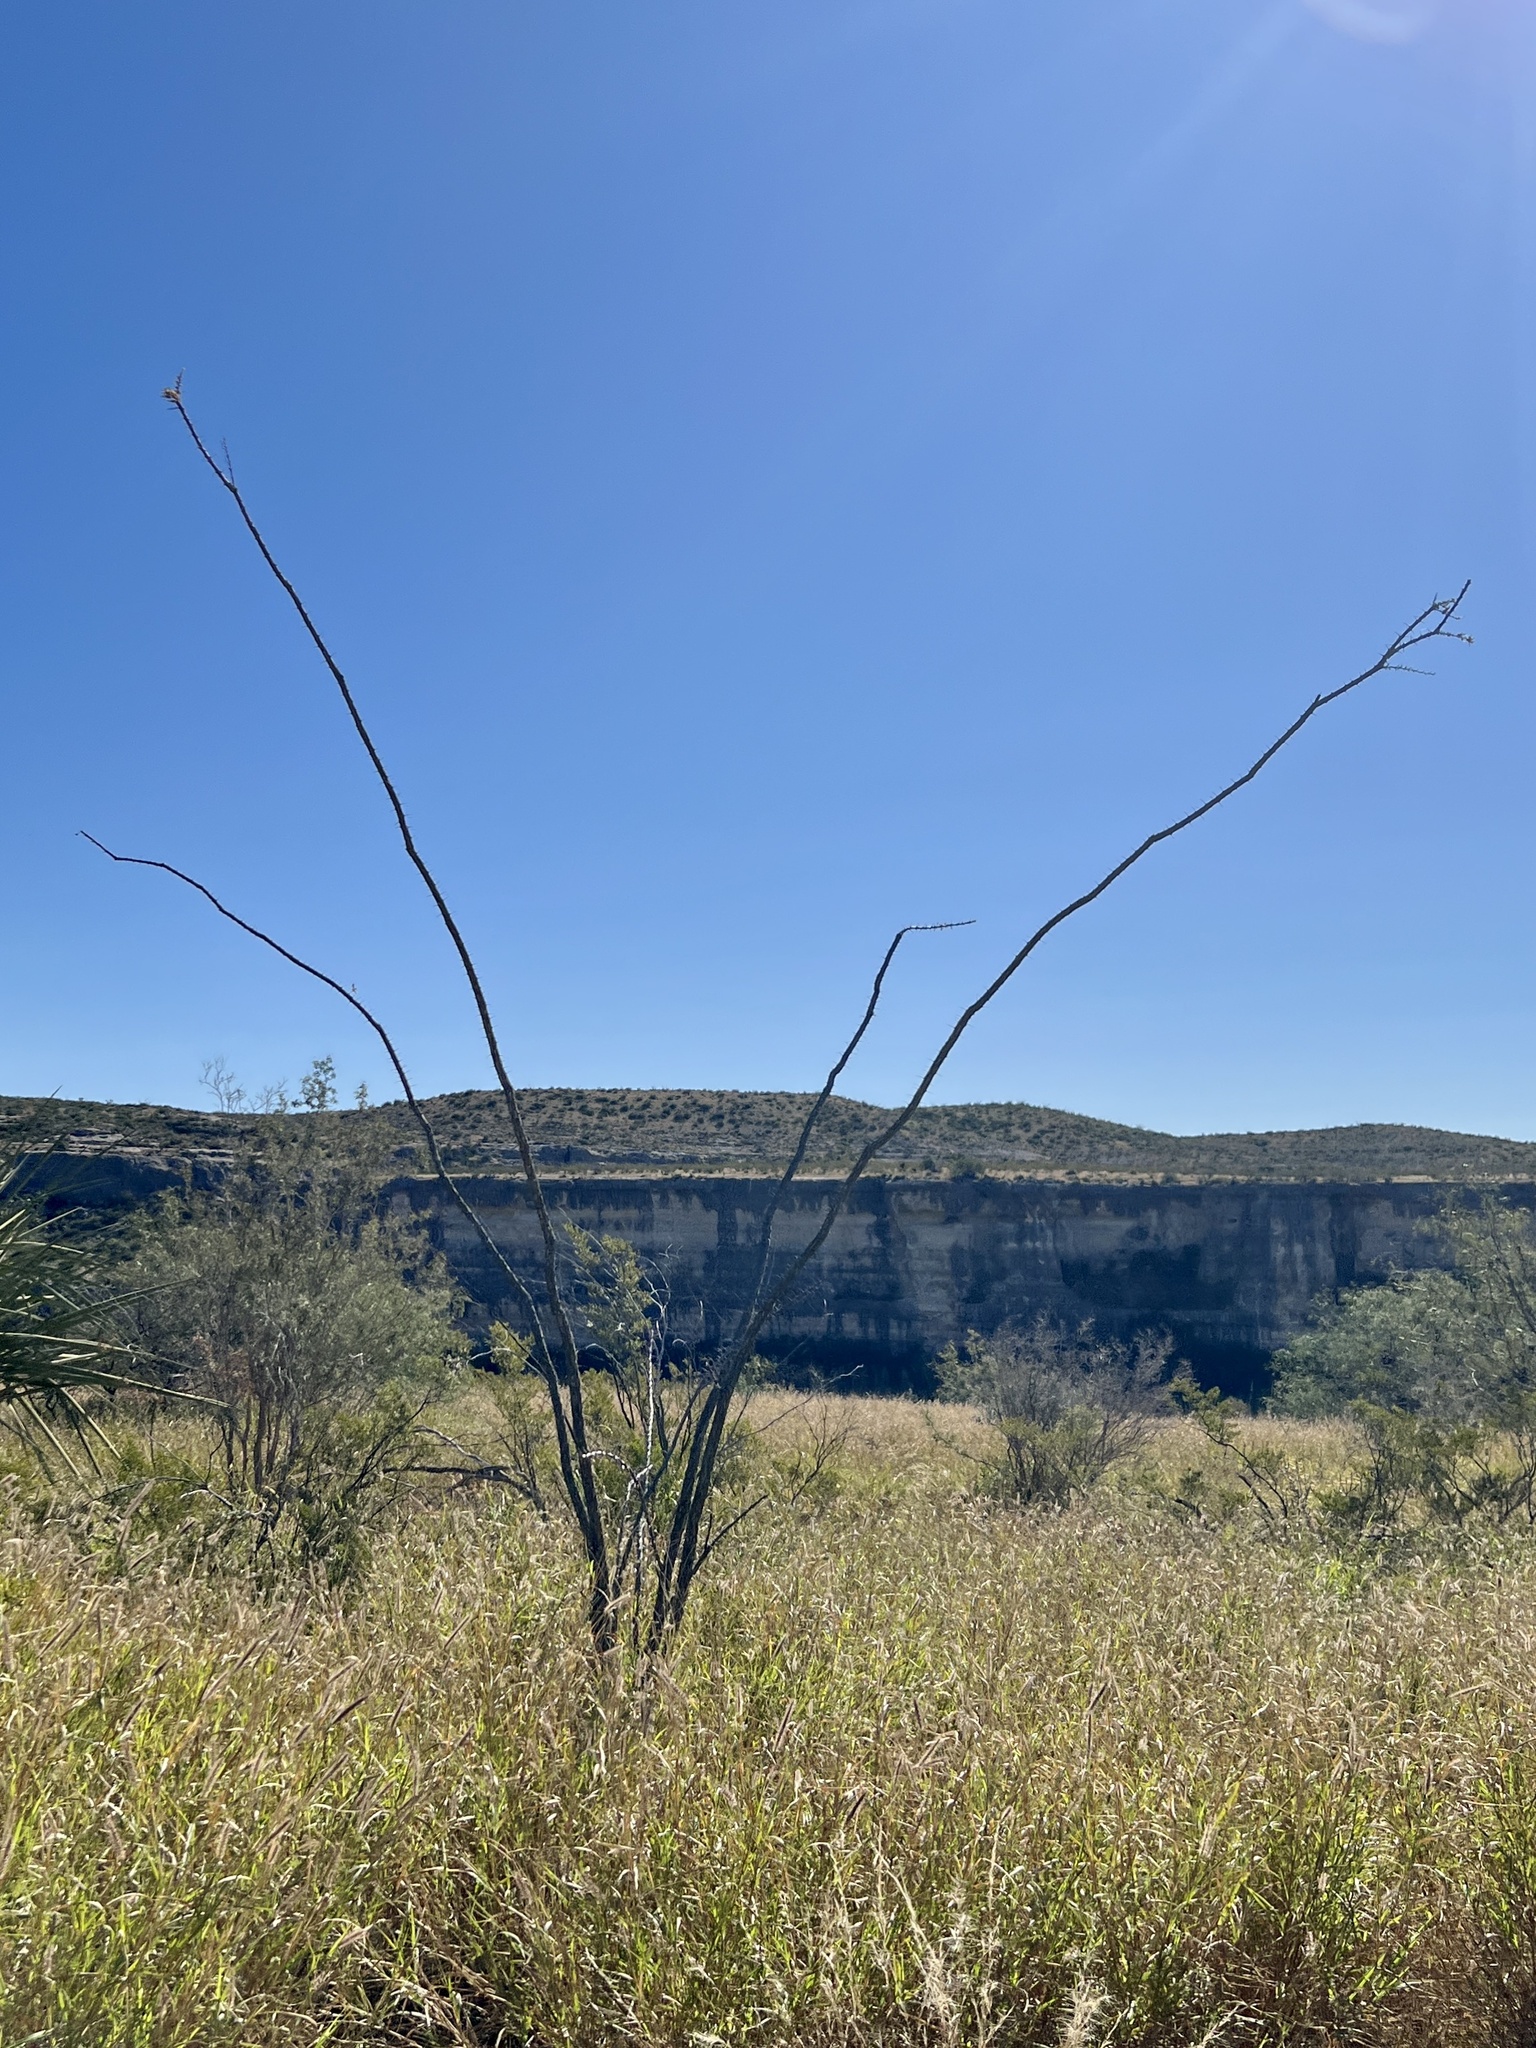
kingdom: Plantae
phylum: Tracheophyta
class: Magnoliopsida
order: Ericales
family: Fouquieriaceae
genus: Fouquieria
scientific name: Fouquieria splendens
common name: Vine-cactus
